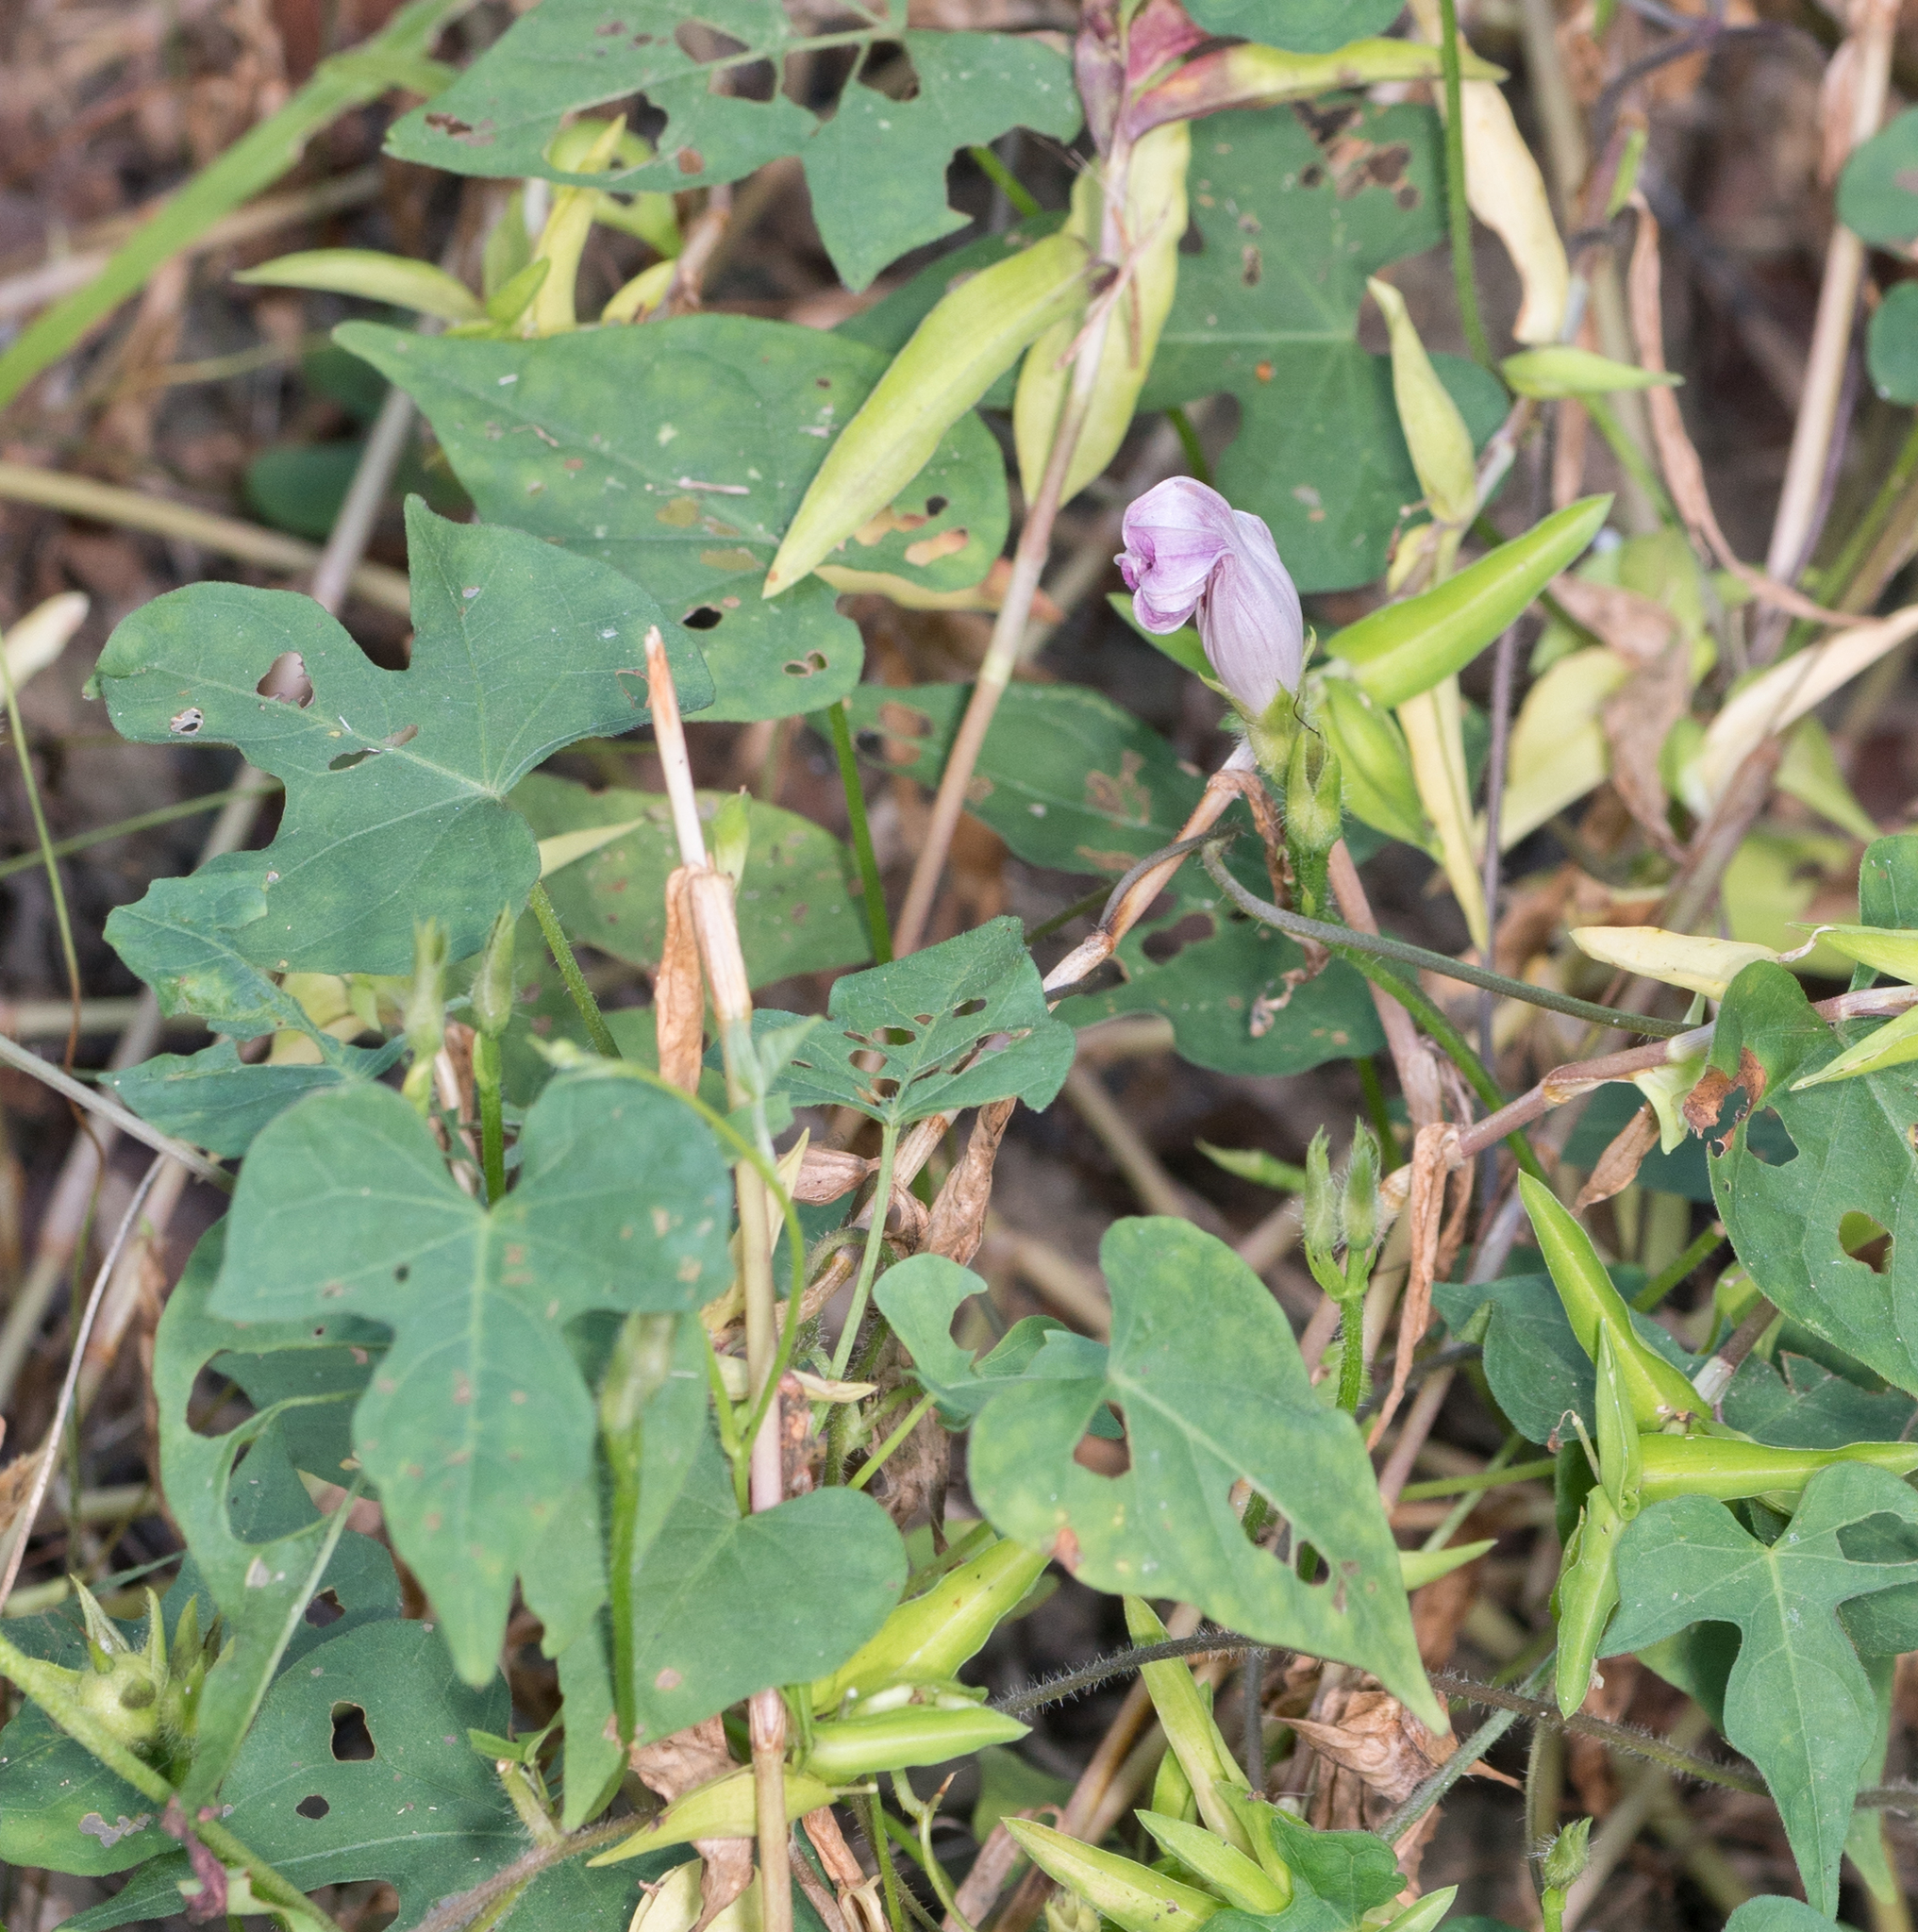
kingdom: Plantae
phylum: Tracheophyta
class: Magnoliopsida
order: Solanales
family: Convolvulaceae
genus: Ipomoea
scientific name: Ipomoea cordatotriloba
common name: Cotton morning glory
